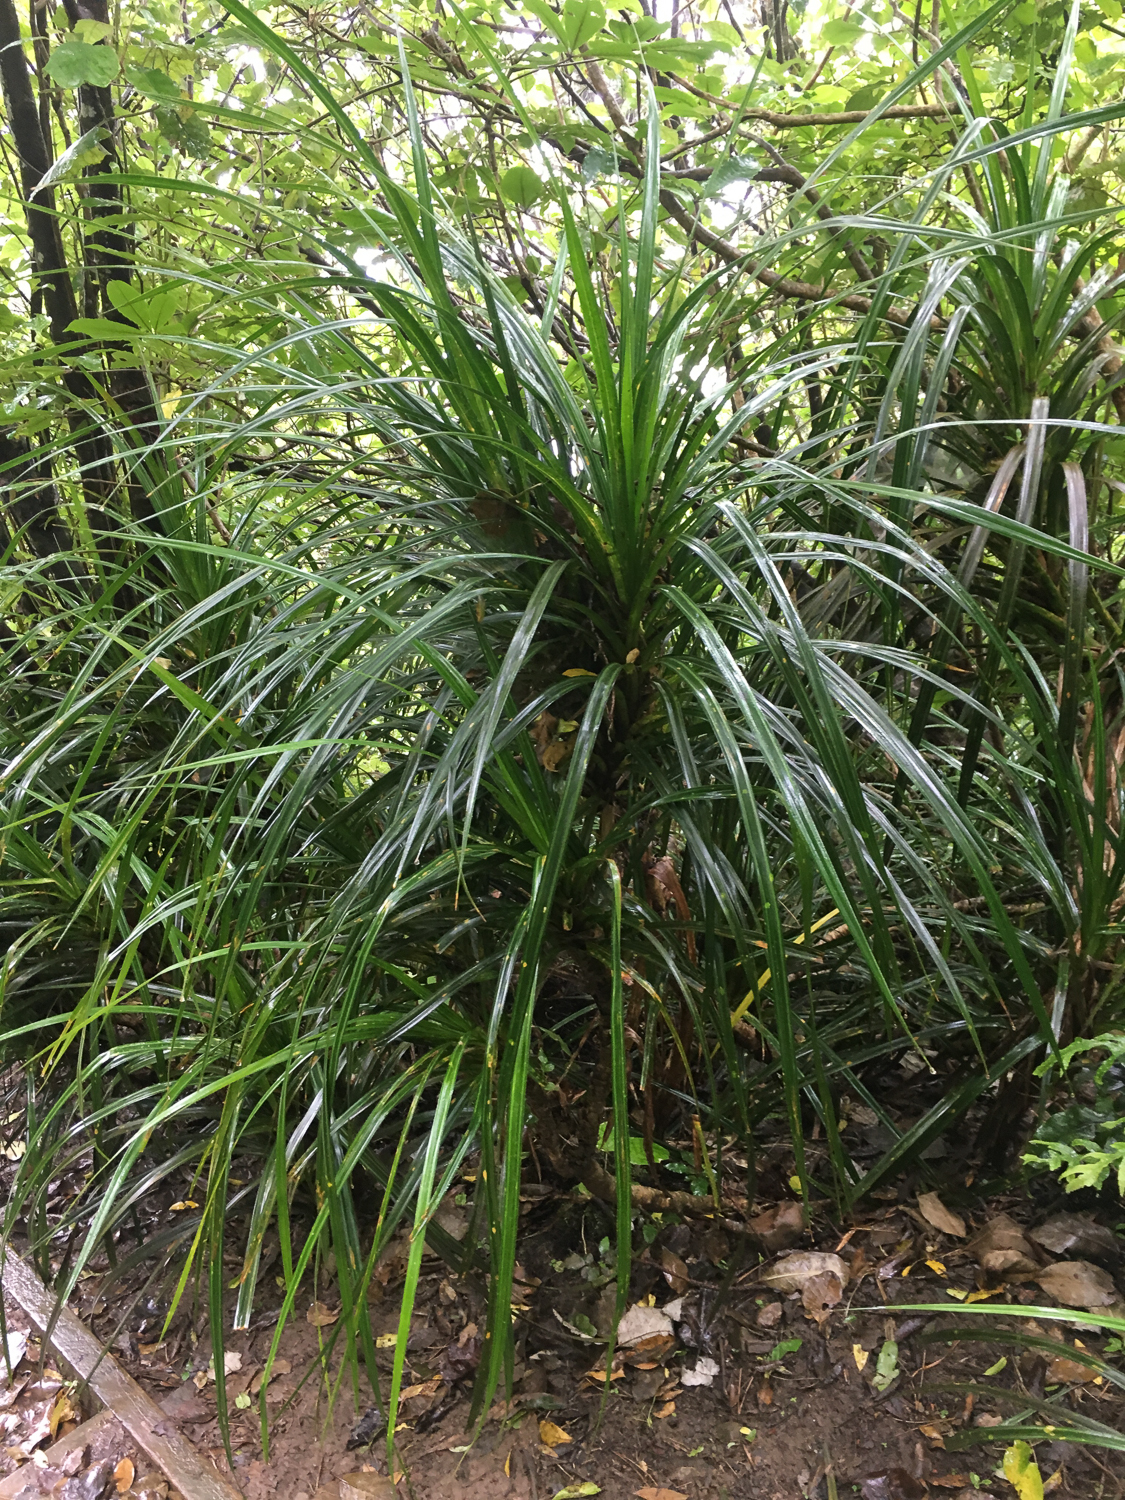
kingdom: Plantae
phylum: Tracheophyta
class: Liliopsida
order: Pandanales
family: Pandanaceae
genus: Freycinetia
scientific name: Freycinetia banksii
